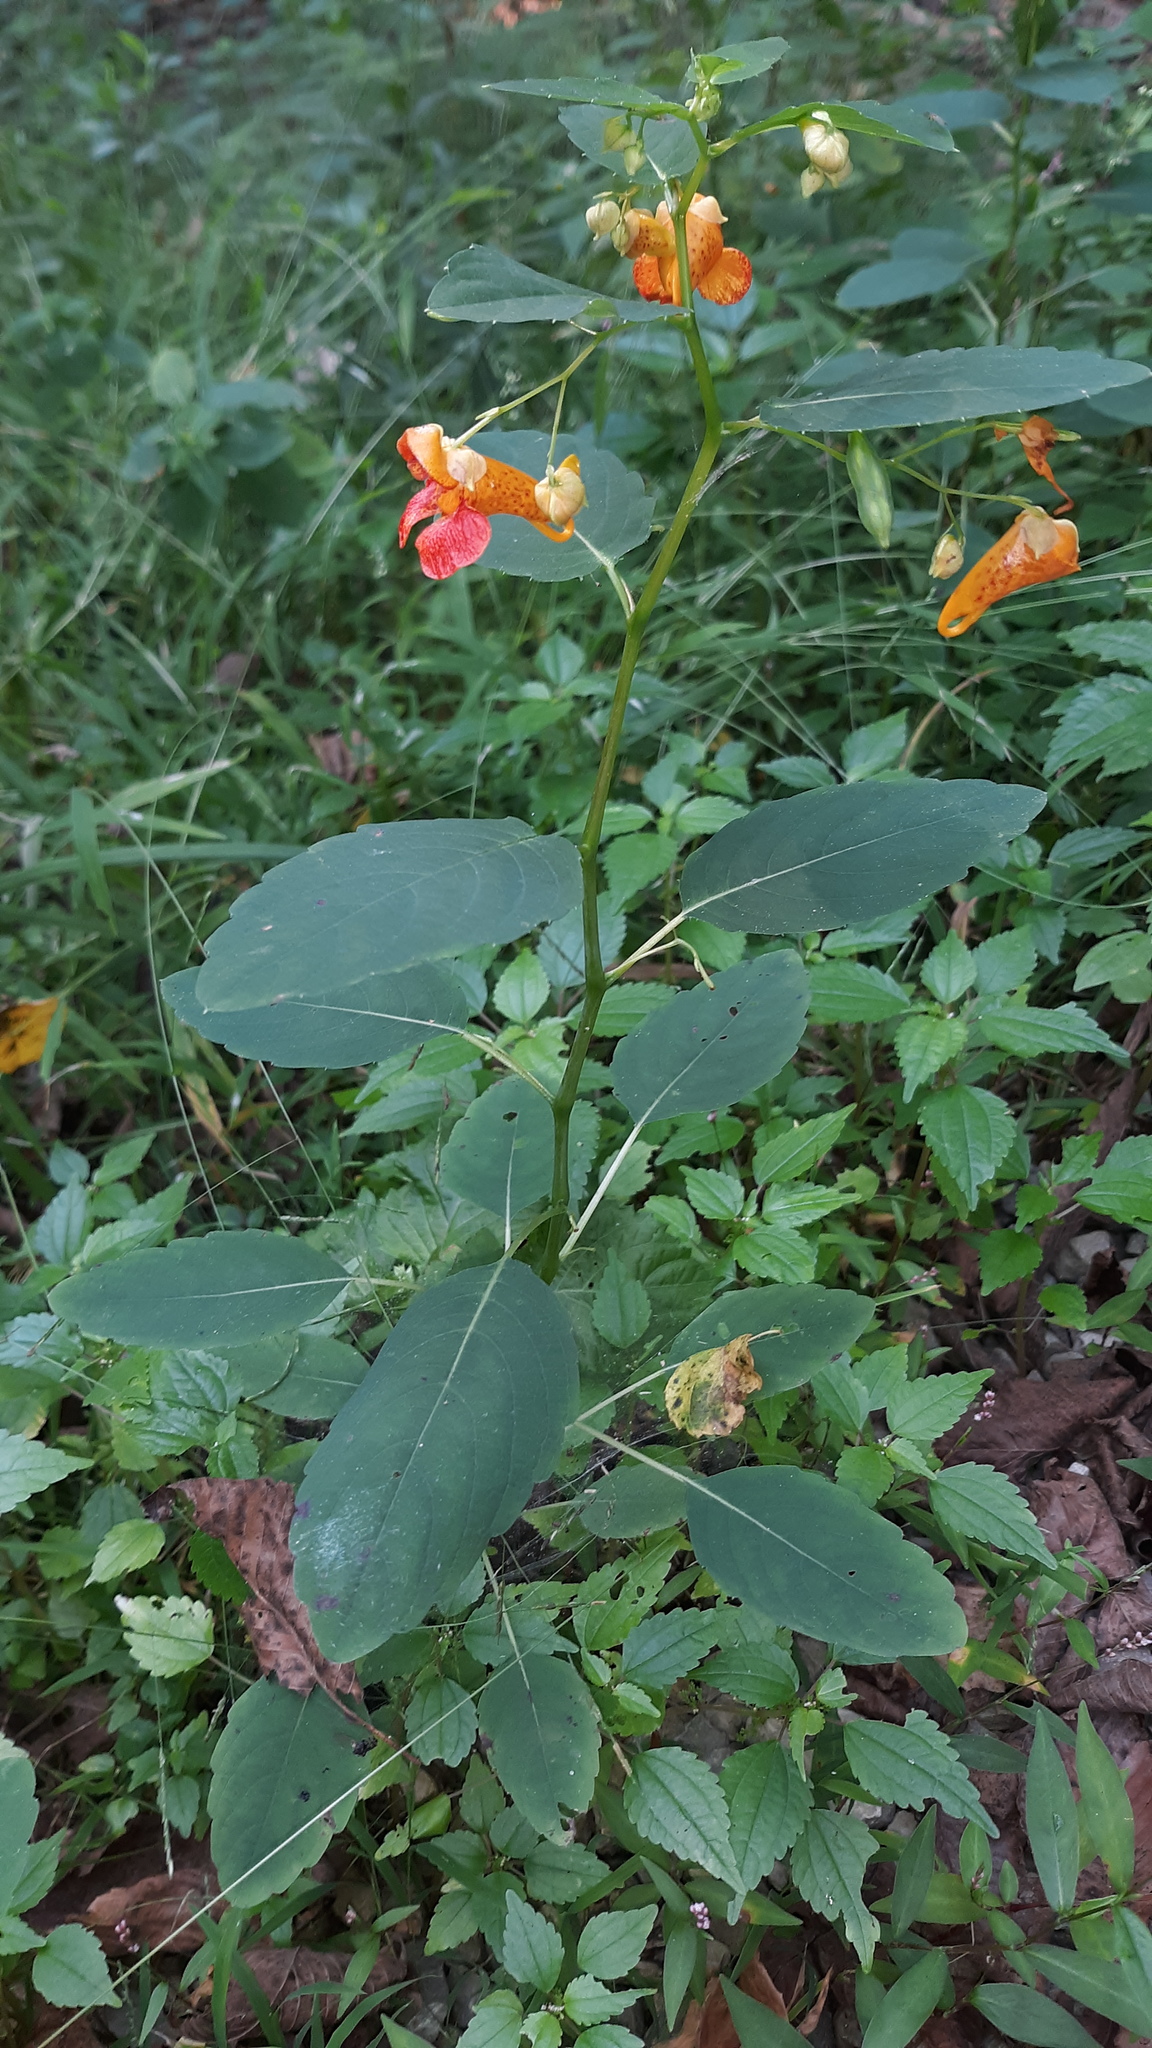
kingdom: Plantae
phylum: Tracheophyta
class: Magnoliopsida
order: Ericales
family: Balsaminaceae
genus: Impatiens
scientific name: Impatiens capensis
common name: Orange balsam
